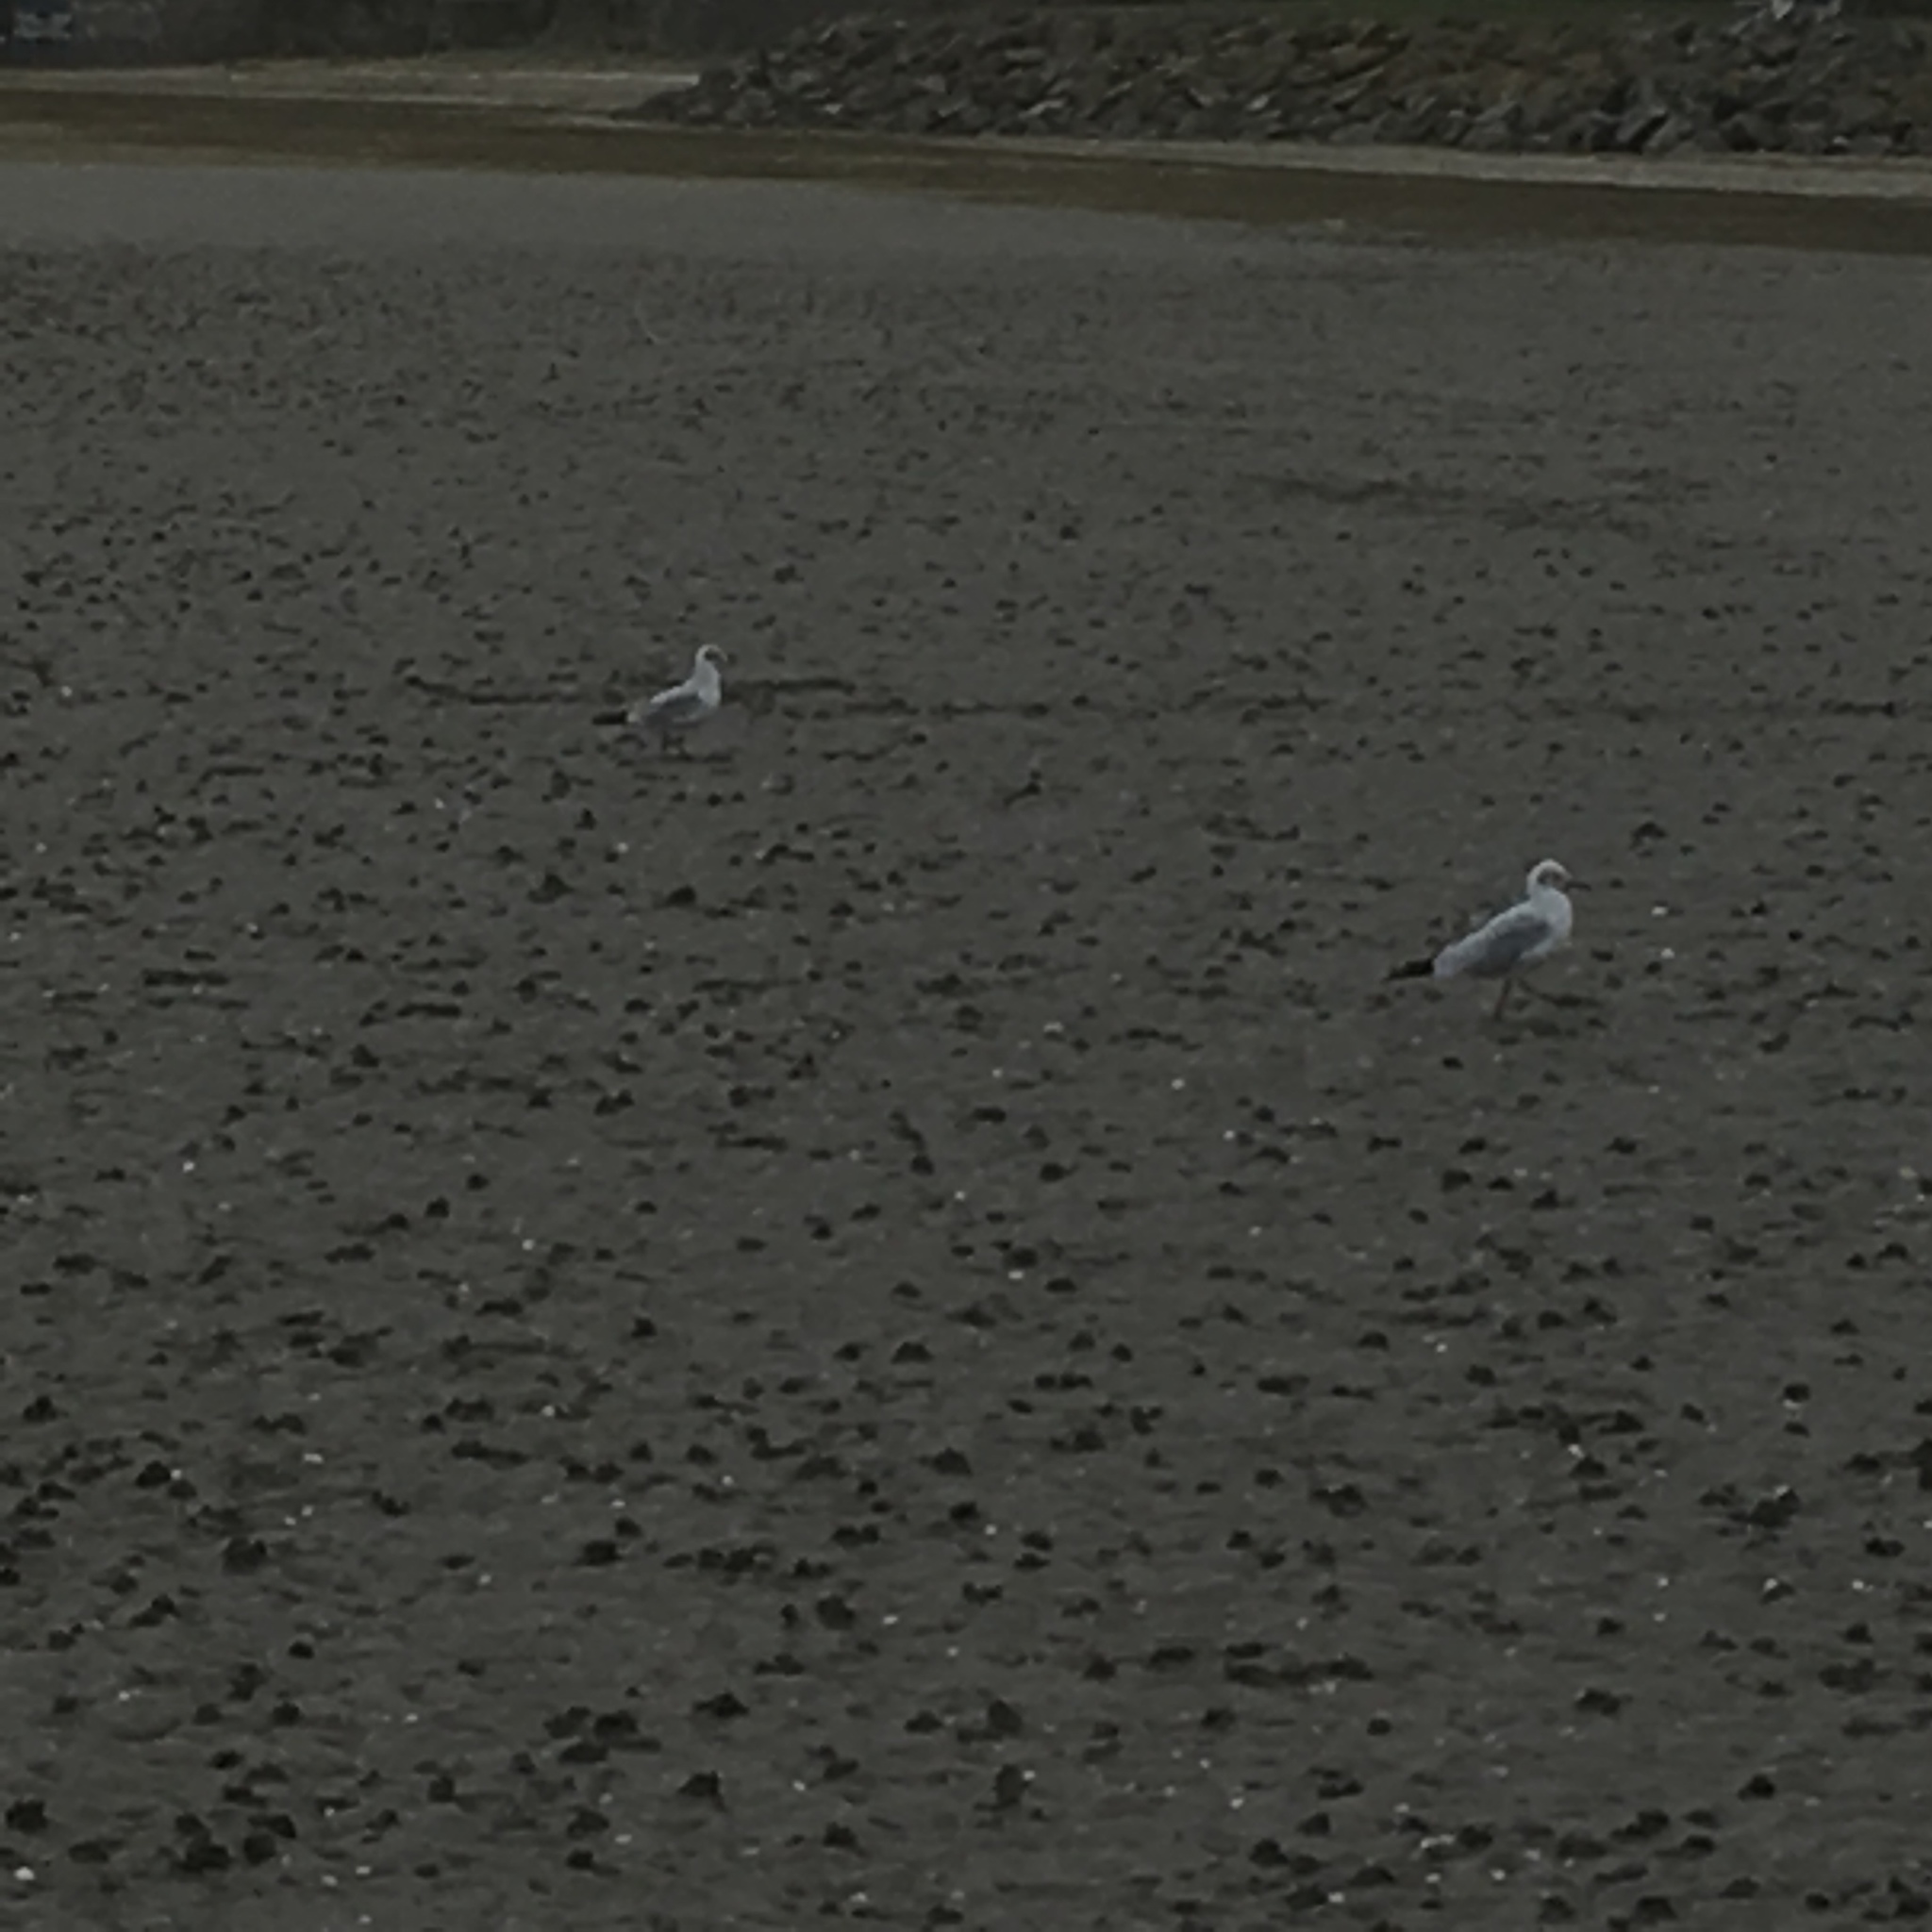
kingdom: Animalia
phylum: Chordata
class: Aves
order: Charadriiformes
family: Laridae
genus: Chroicocephalus
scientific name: Chroicocephalus ridibundus
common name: Black-headed gull
